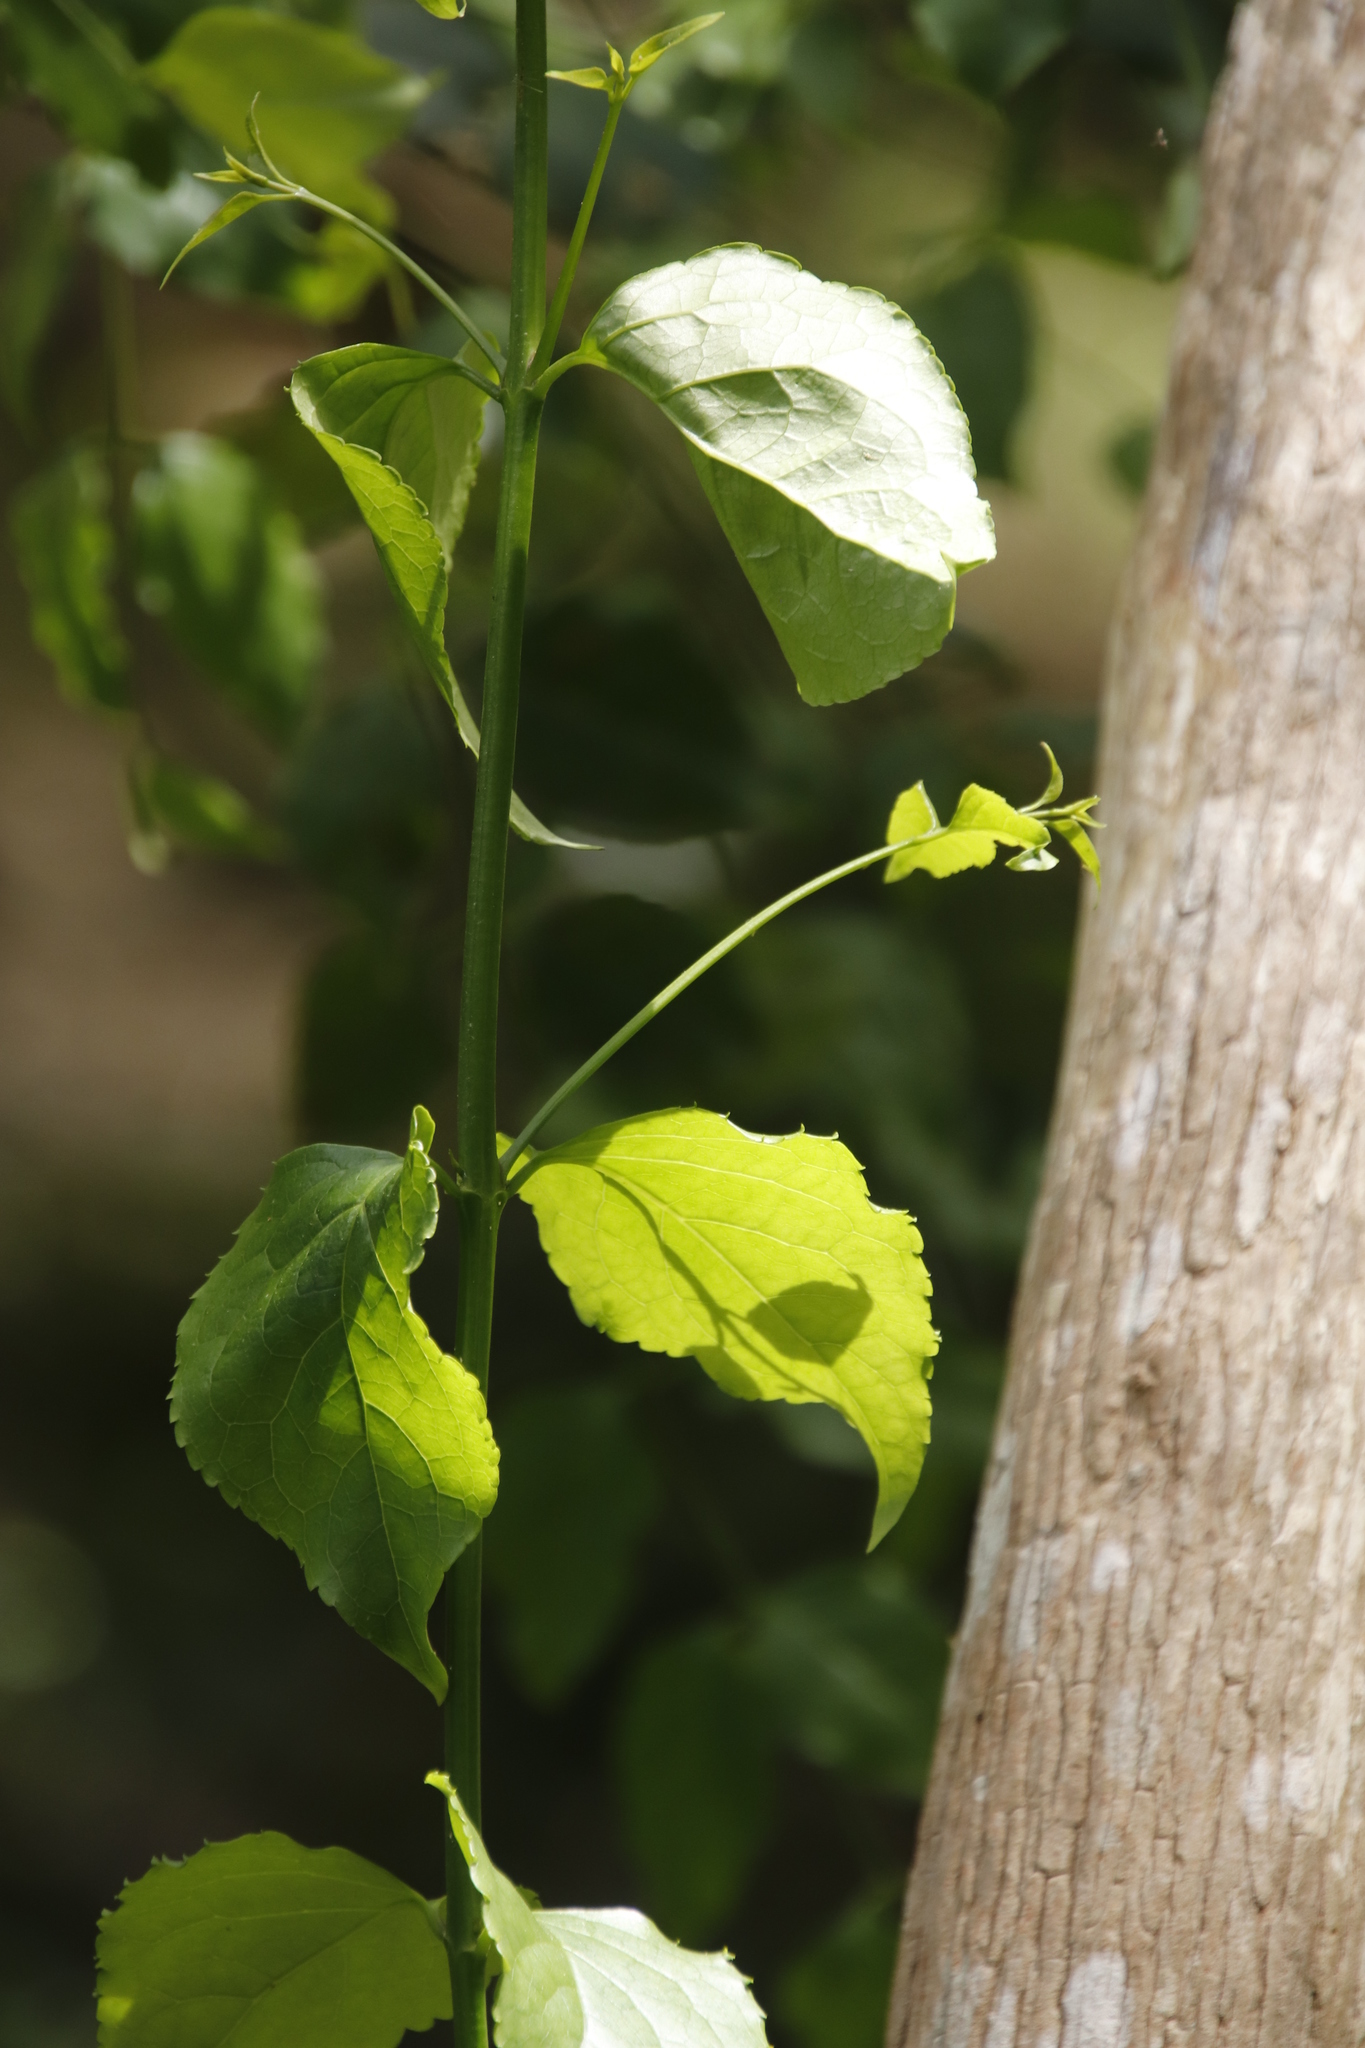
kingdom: Plantae
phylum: Tracheophyta
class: Magnoliopsida
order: Lamiales
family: Stilbaceae
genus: Halleria
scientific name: Halleria lucida
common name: Tree fuschia
